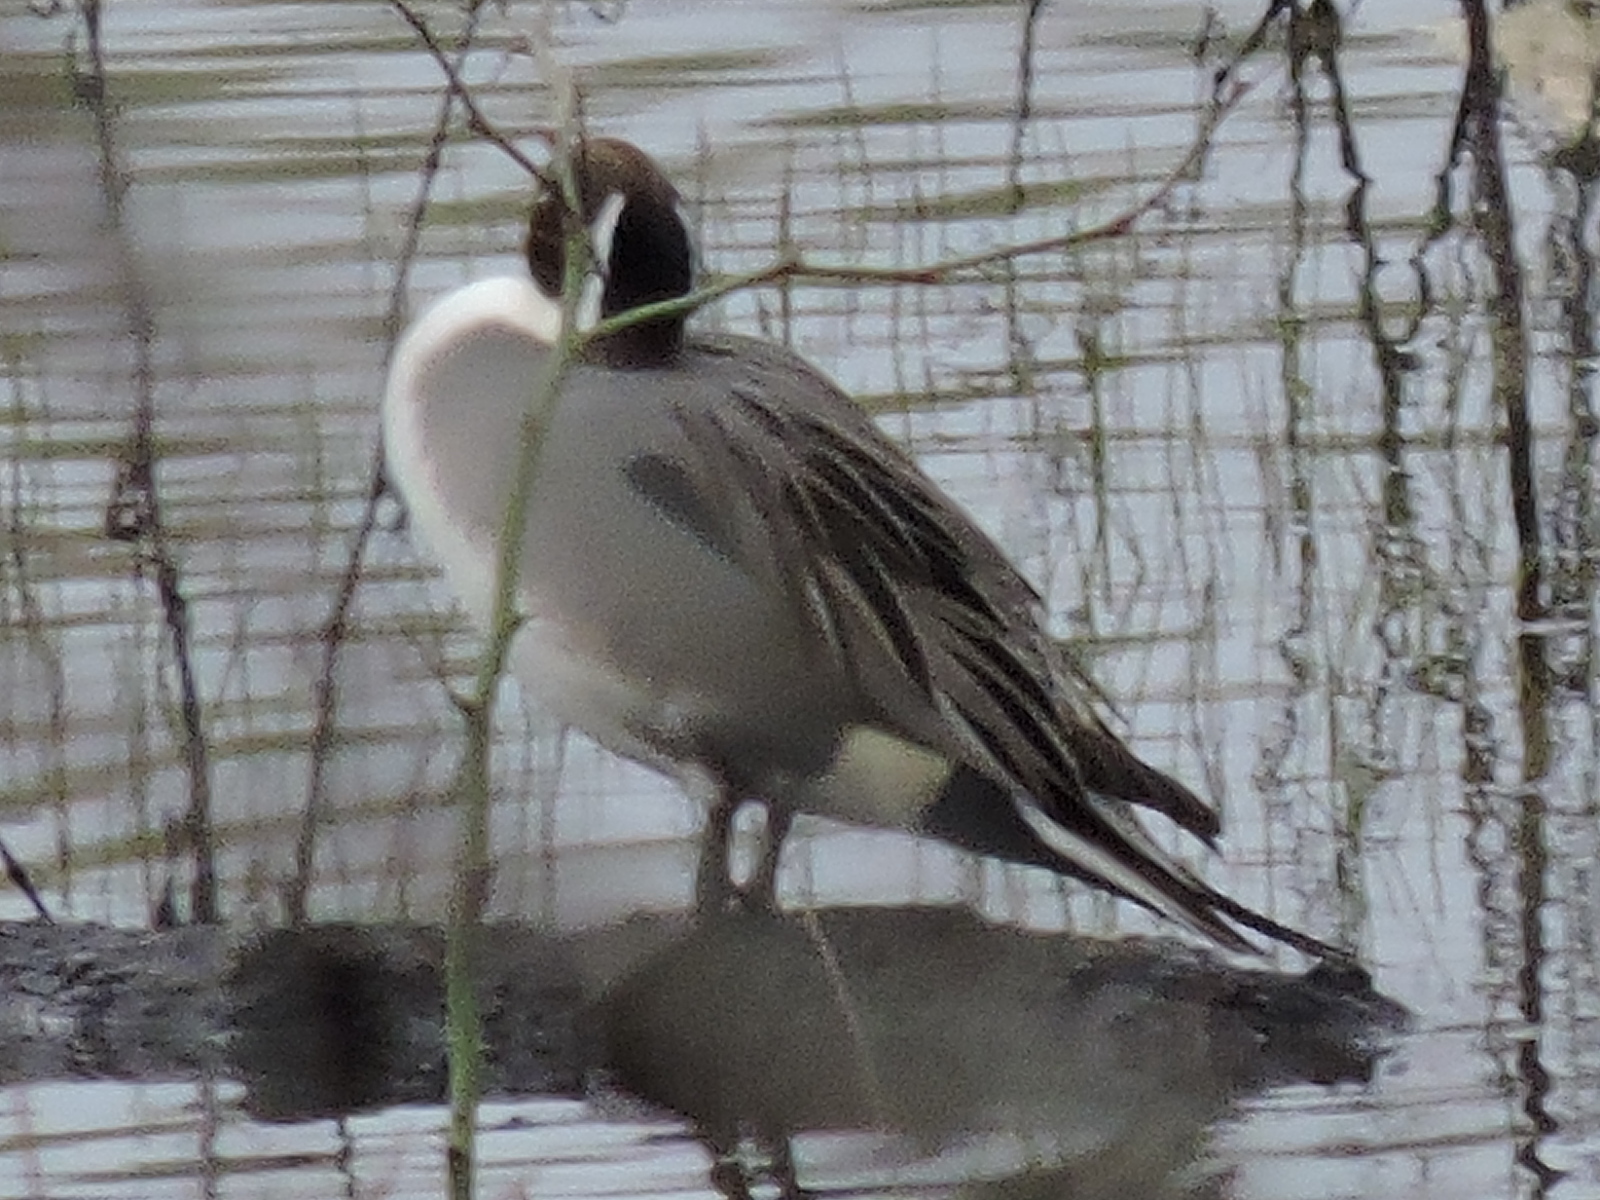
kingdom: Animalia
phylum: Chordata
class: Aves
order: Anseriformes
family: Anatidae
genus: Anas
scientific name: Anas acuta
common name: Northern pintail
